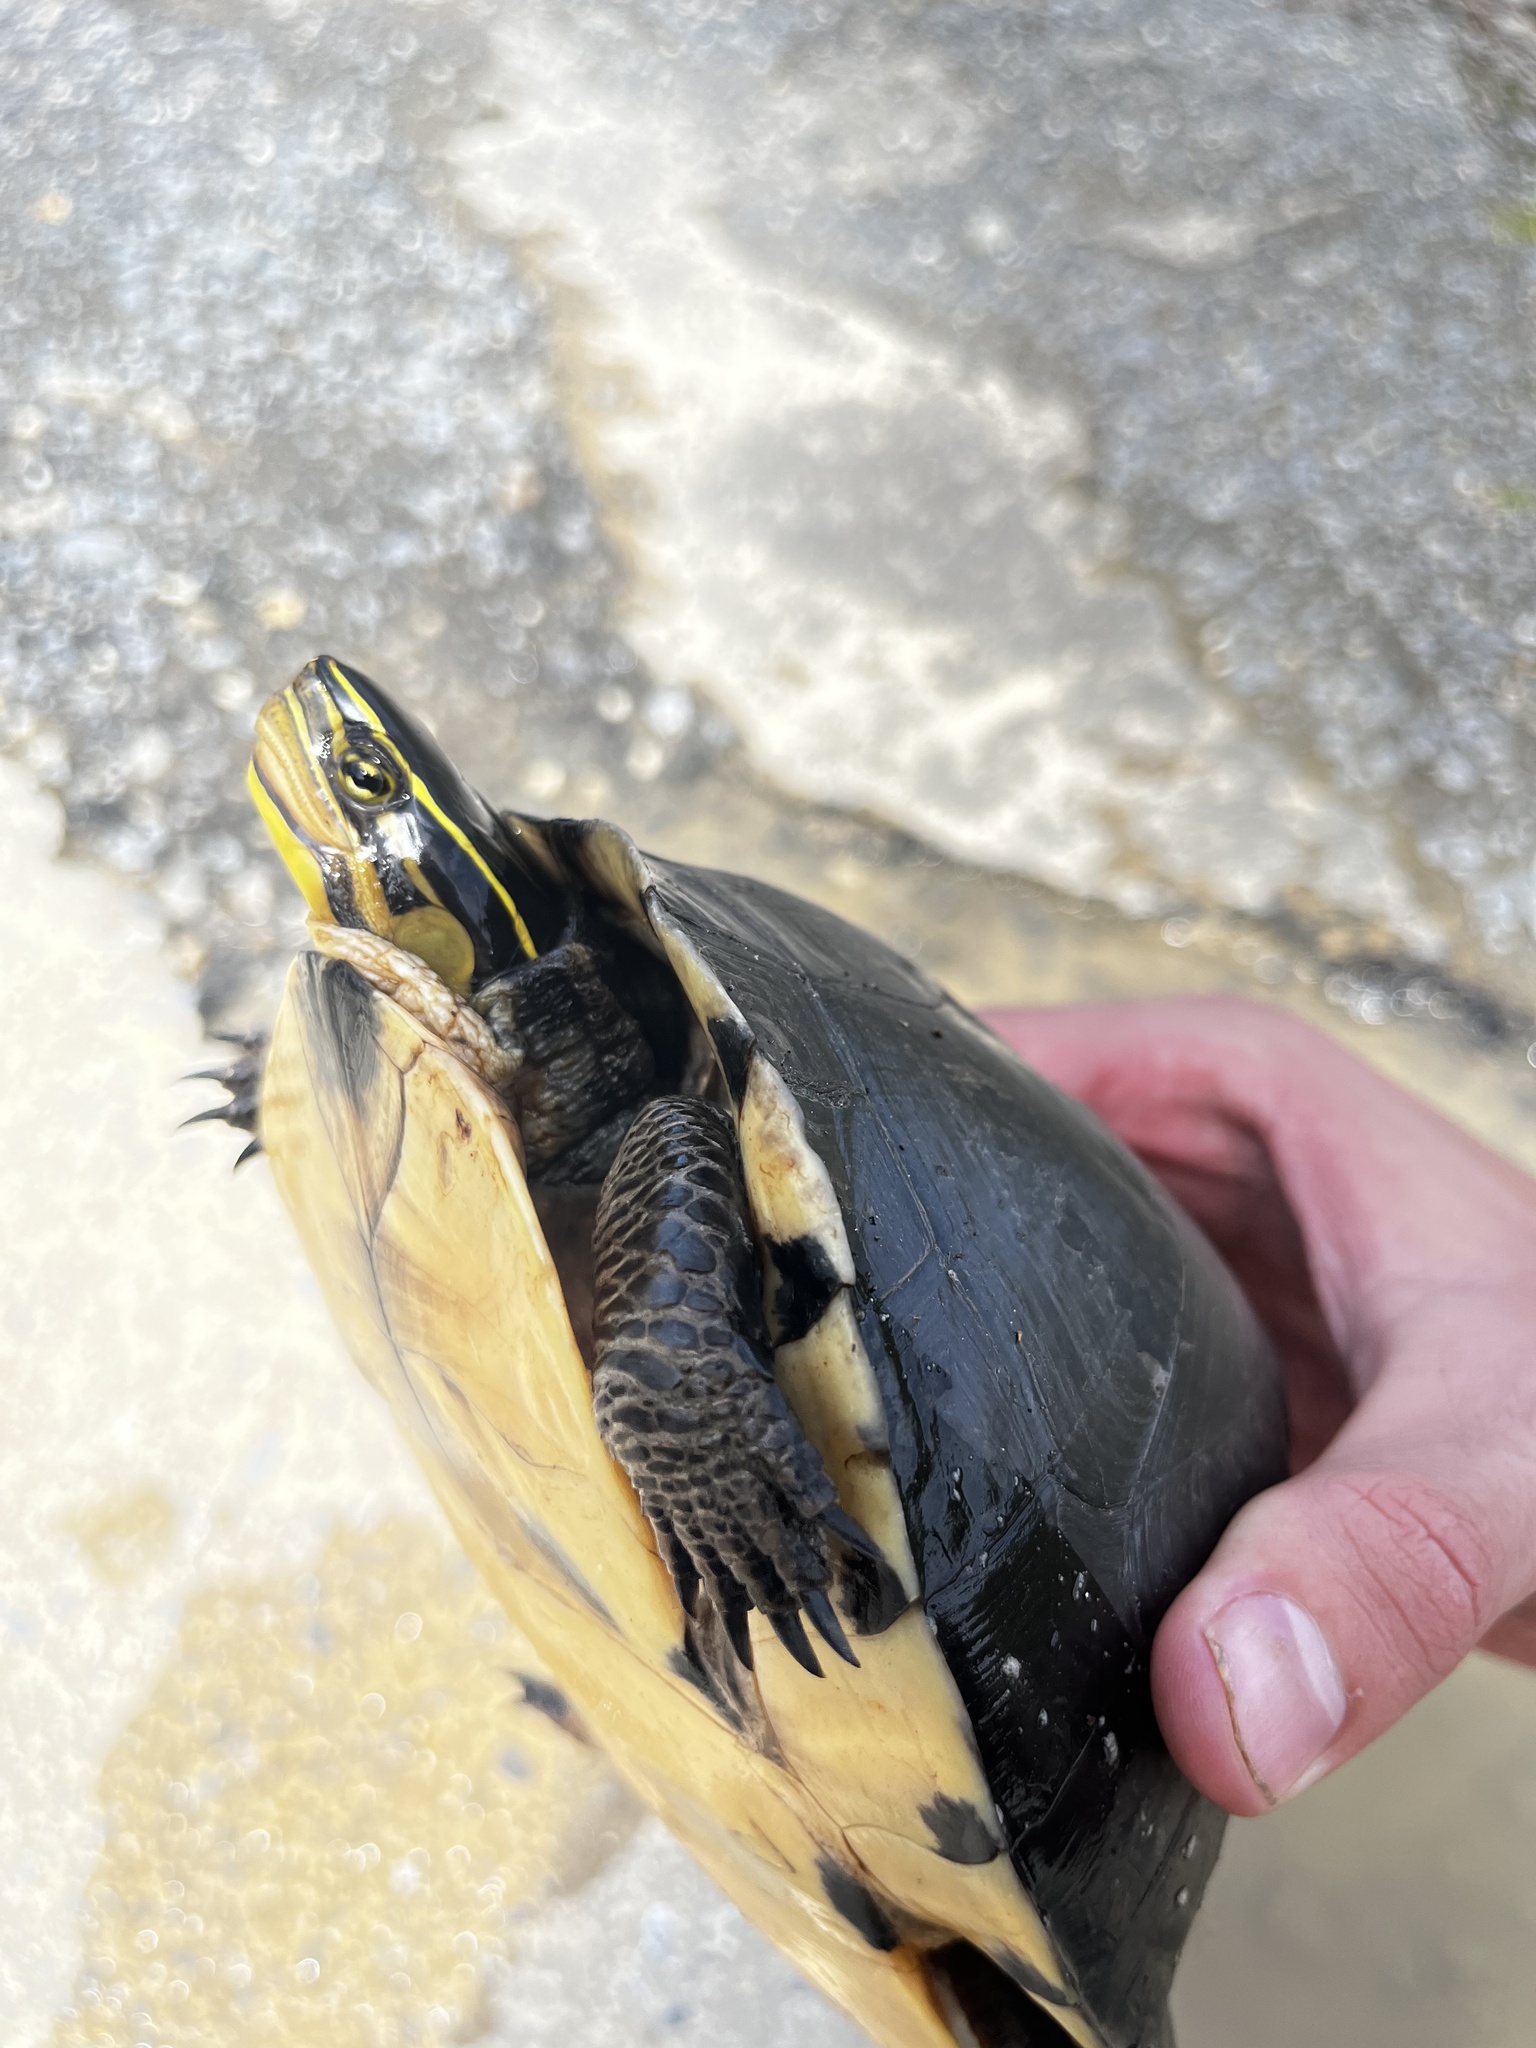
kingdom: Animalia
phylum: Chordata
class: Testudines
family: Geoemydidae
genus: Cuora
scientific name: Cuora
